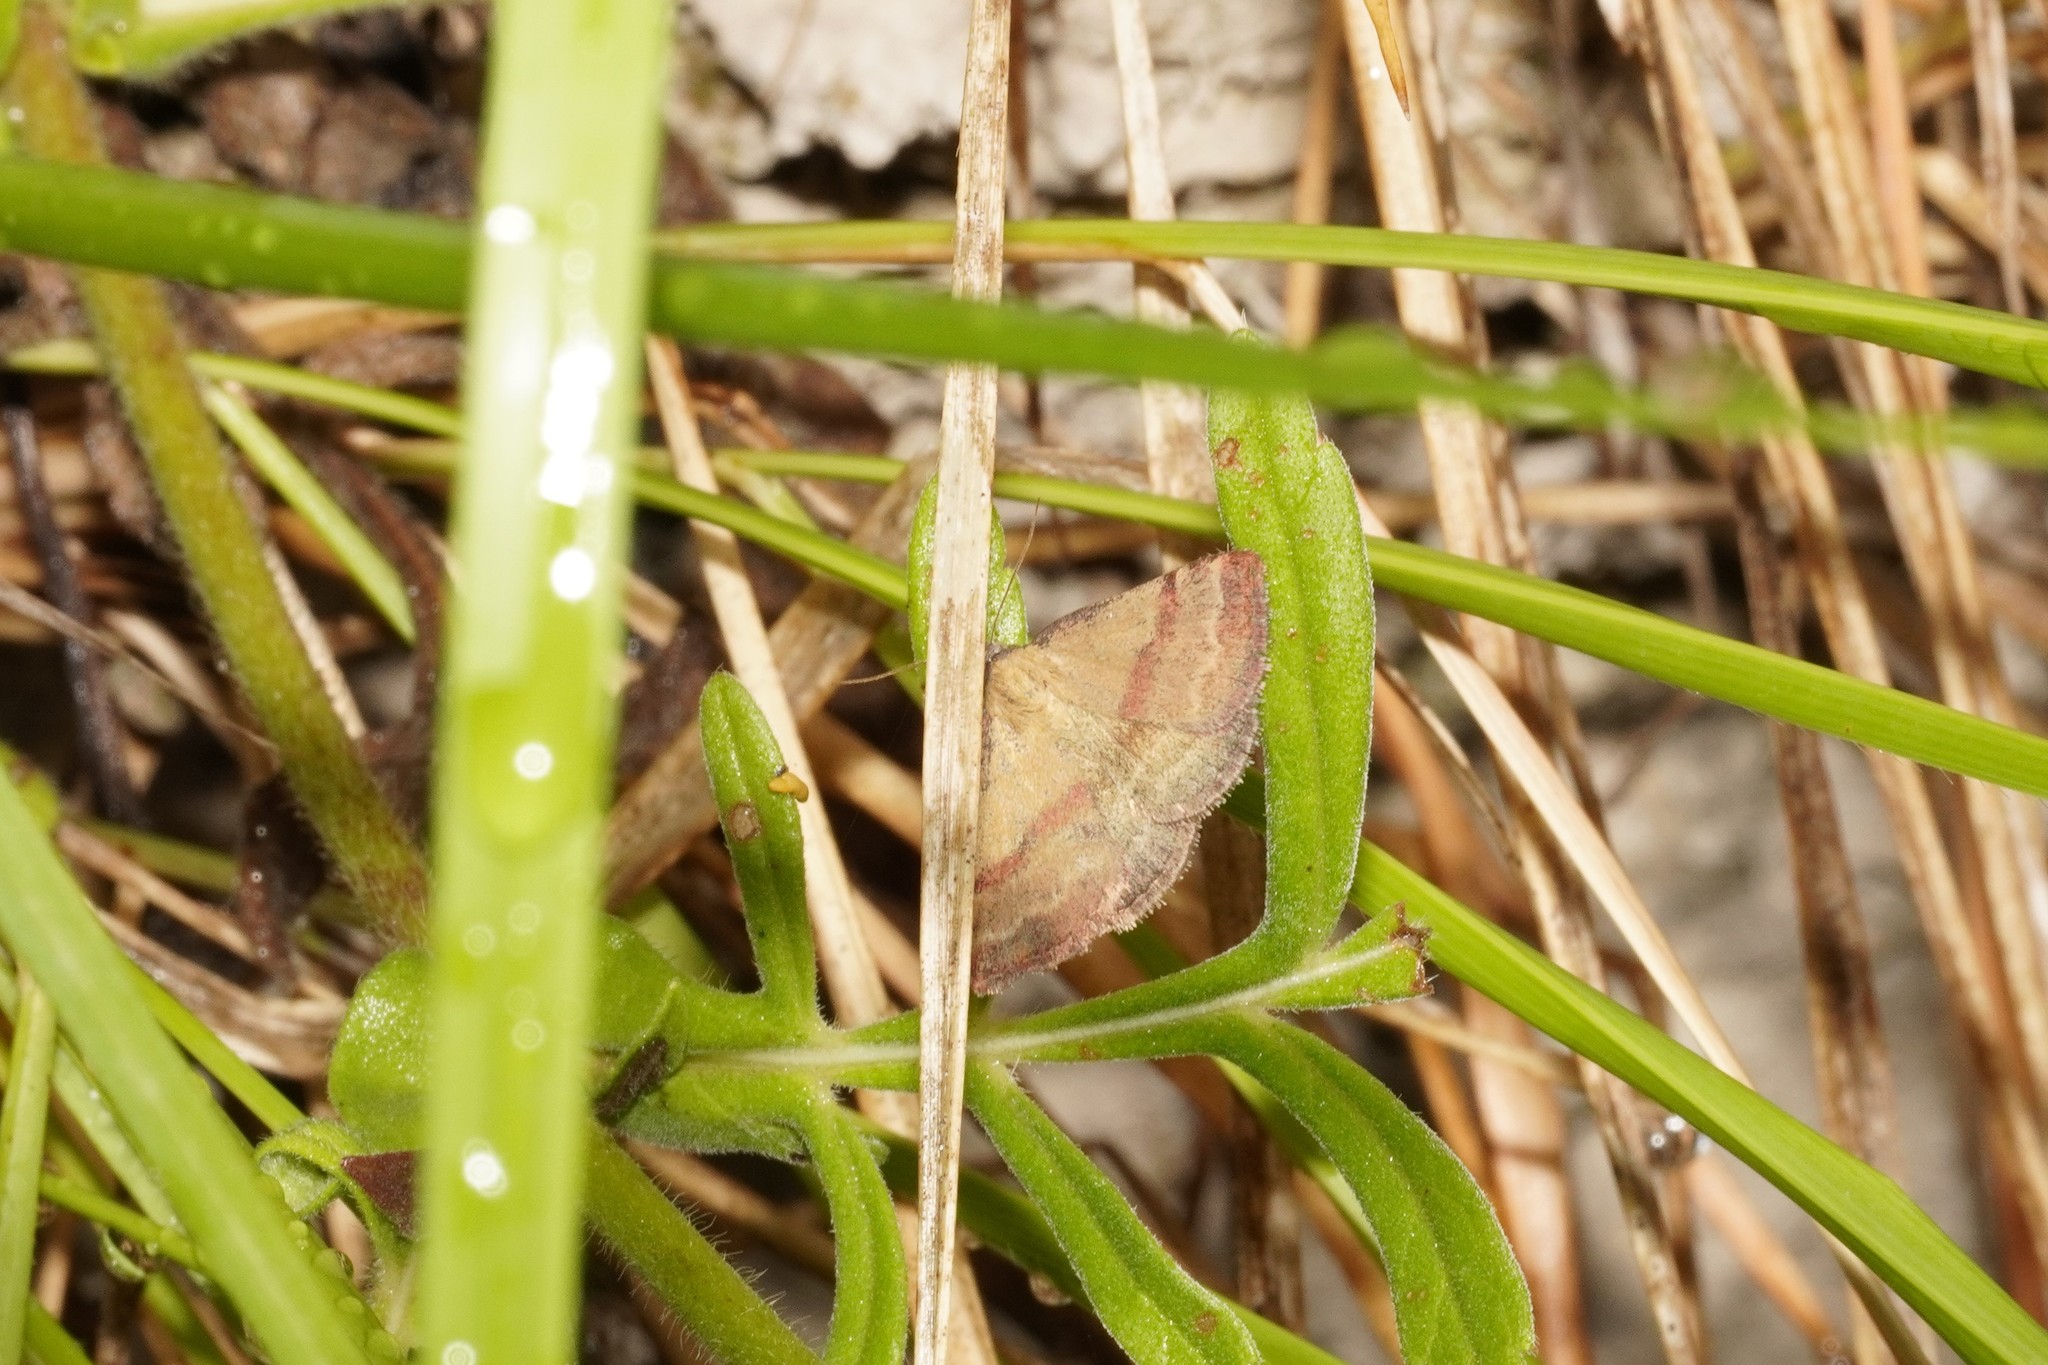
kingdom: Animalia
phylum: Arthropoda
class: Insecta
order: Lepidoptera
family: Erebidae
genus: Phytometra
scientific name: Phytometra viridaria
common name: Small purple-barred
